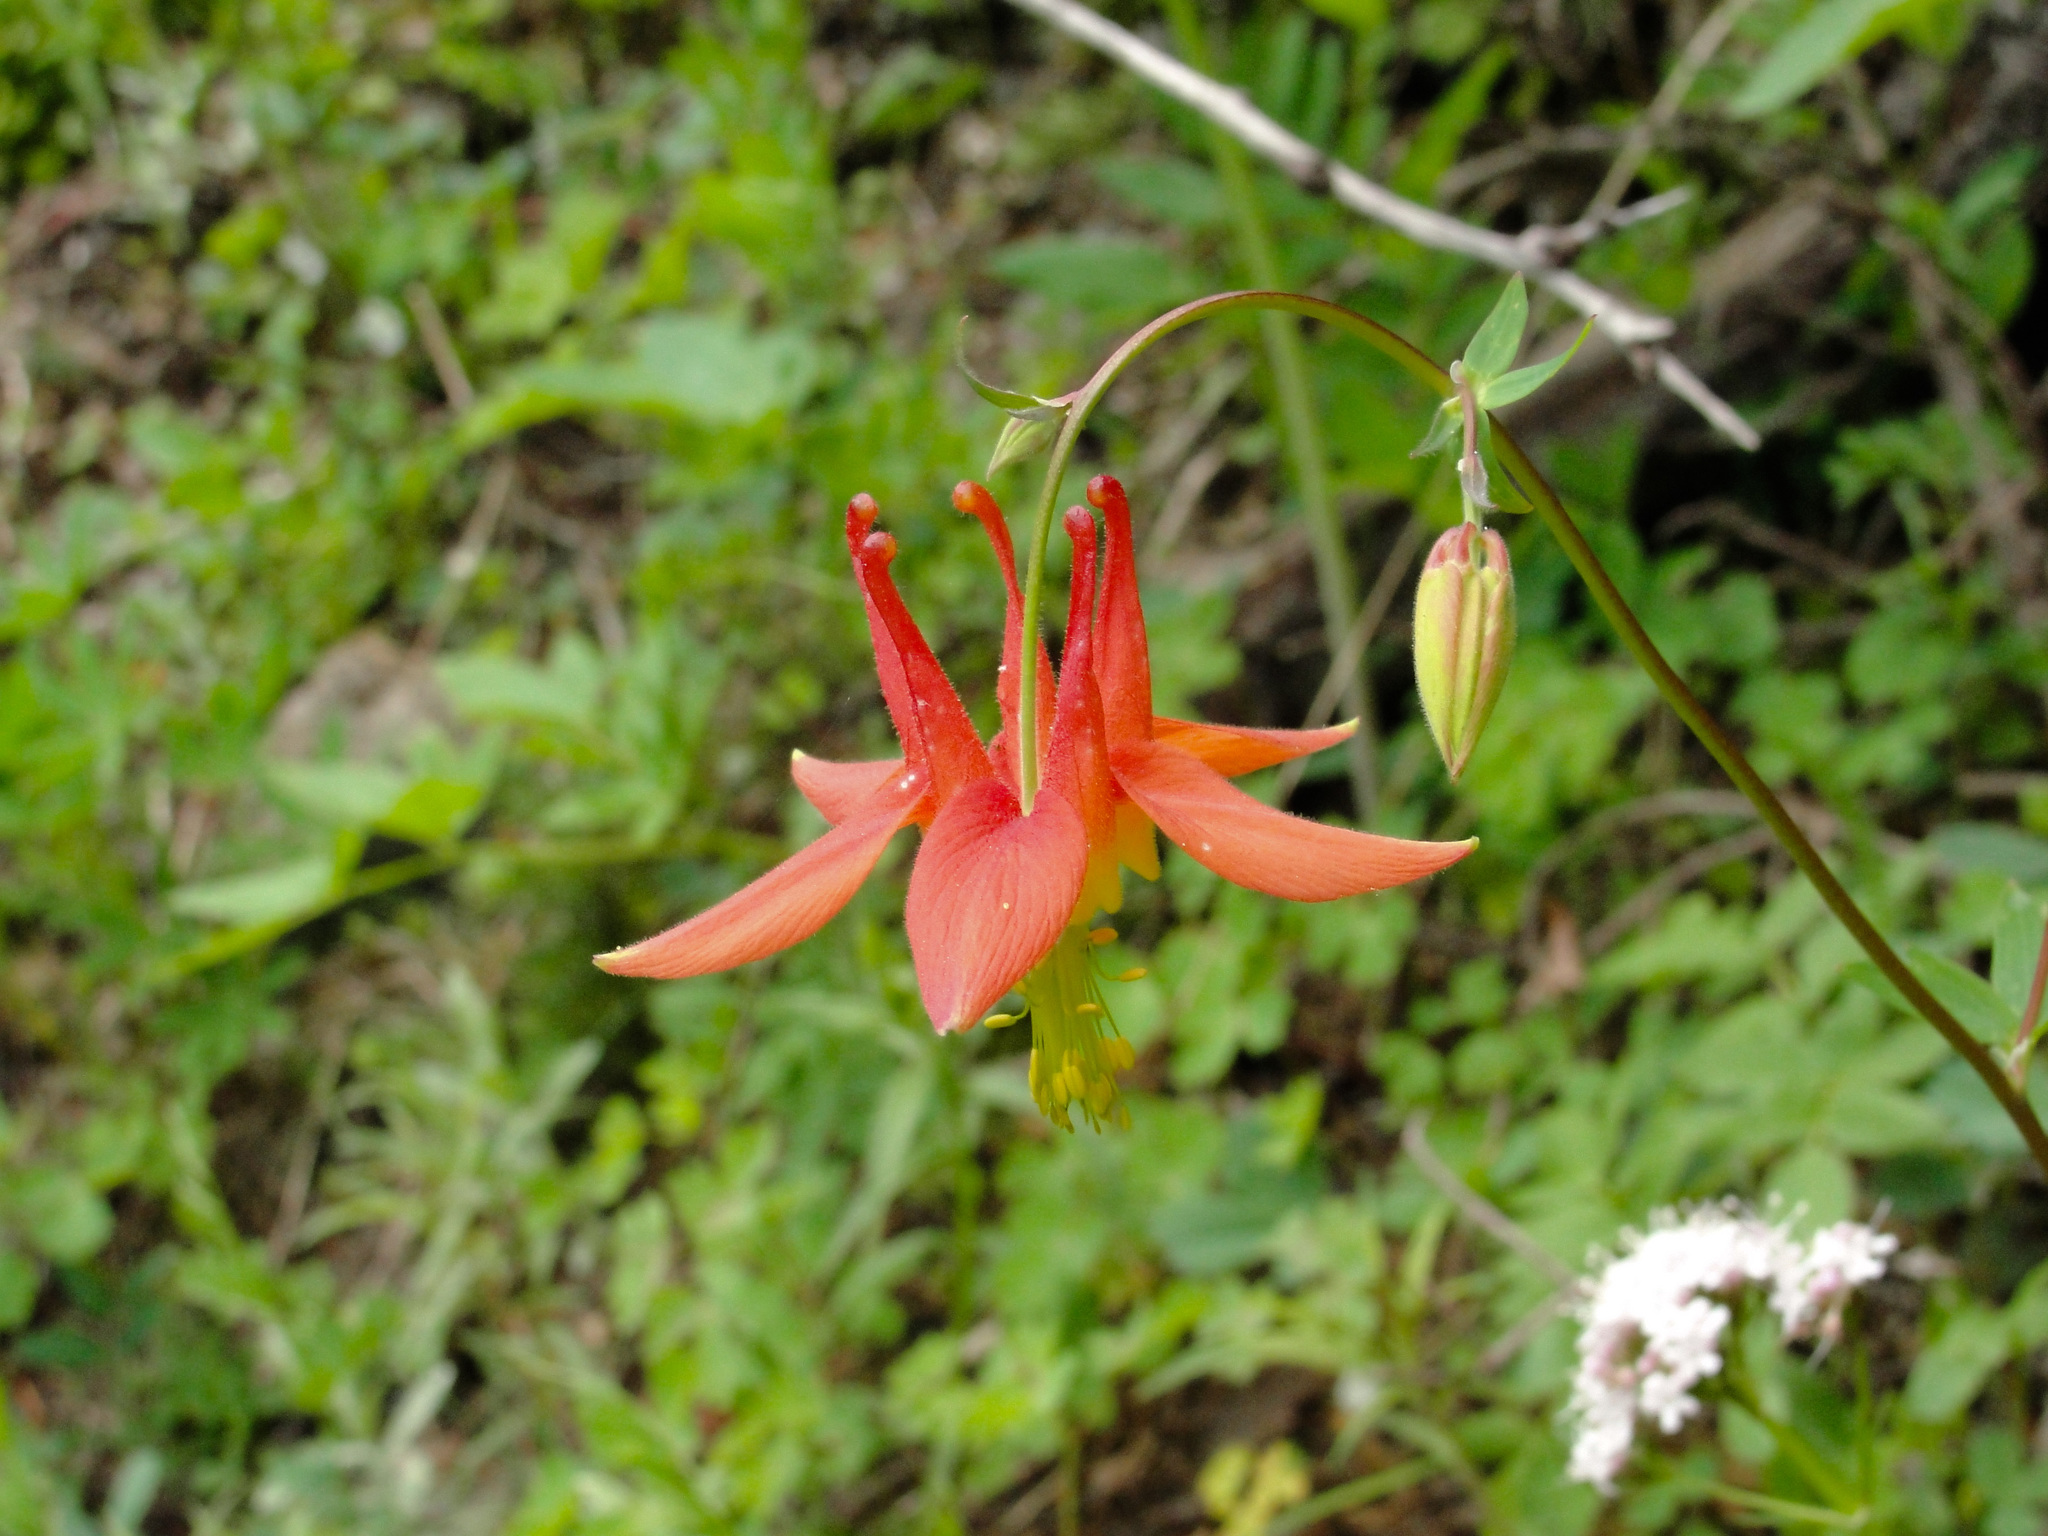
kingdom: Plantae
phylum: Tracheophyta
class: Magnoliopsida
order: Ranunculales
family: Ranunculaceae
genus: Aquilegia
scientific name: Aquilegia formosa
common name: Sitka columbine
